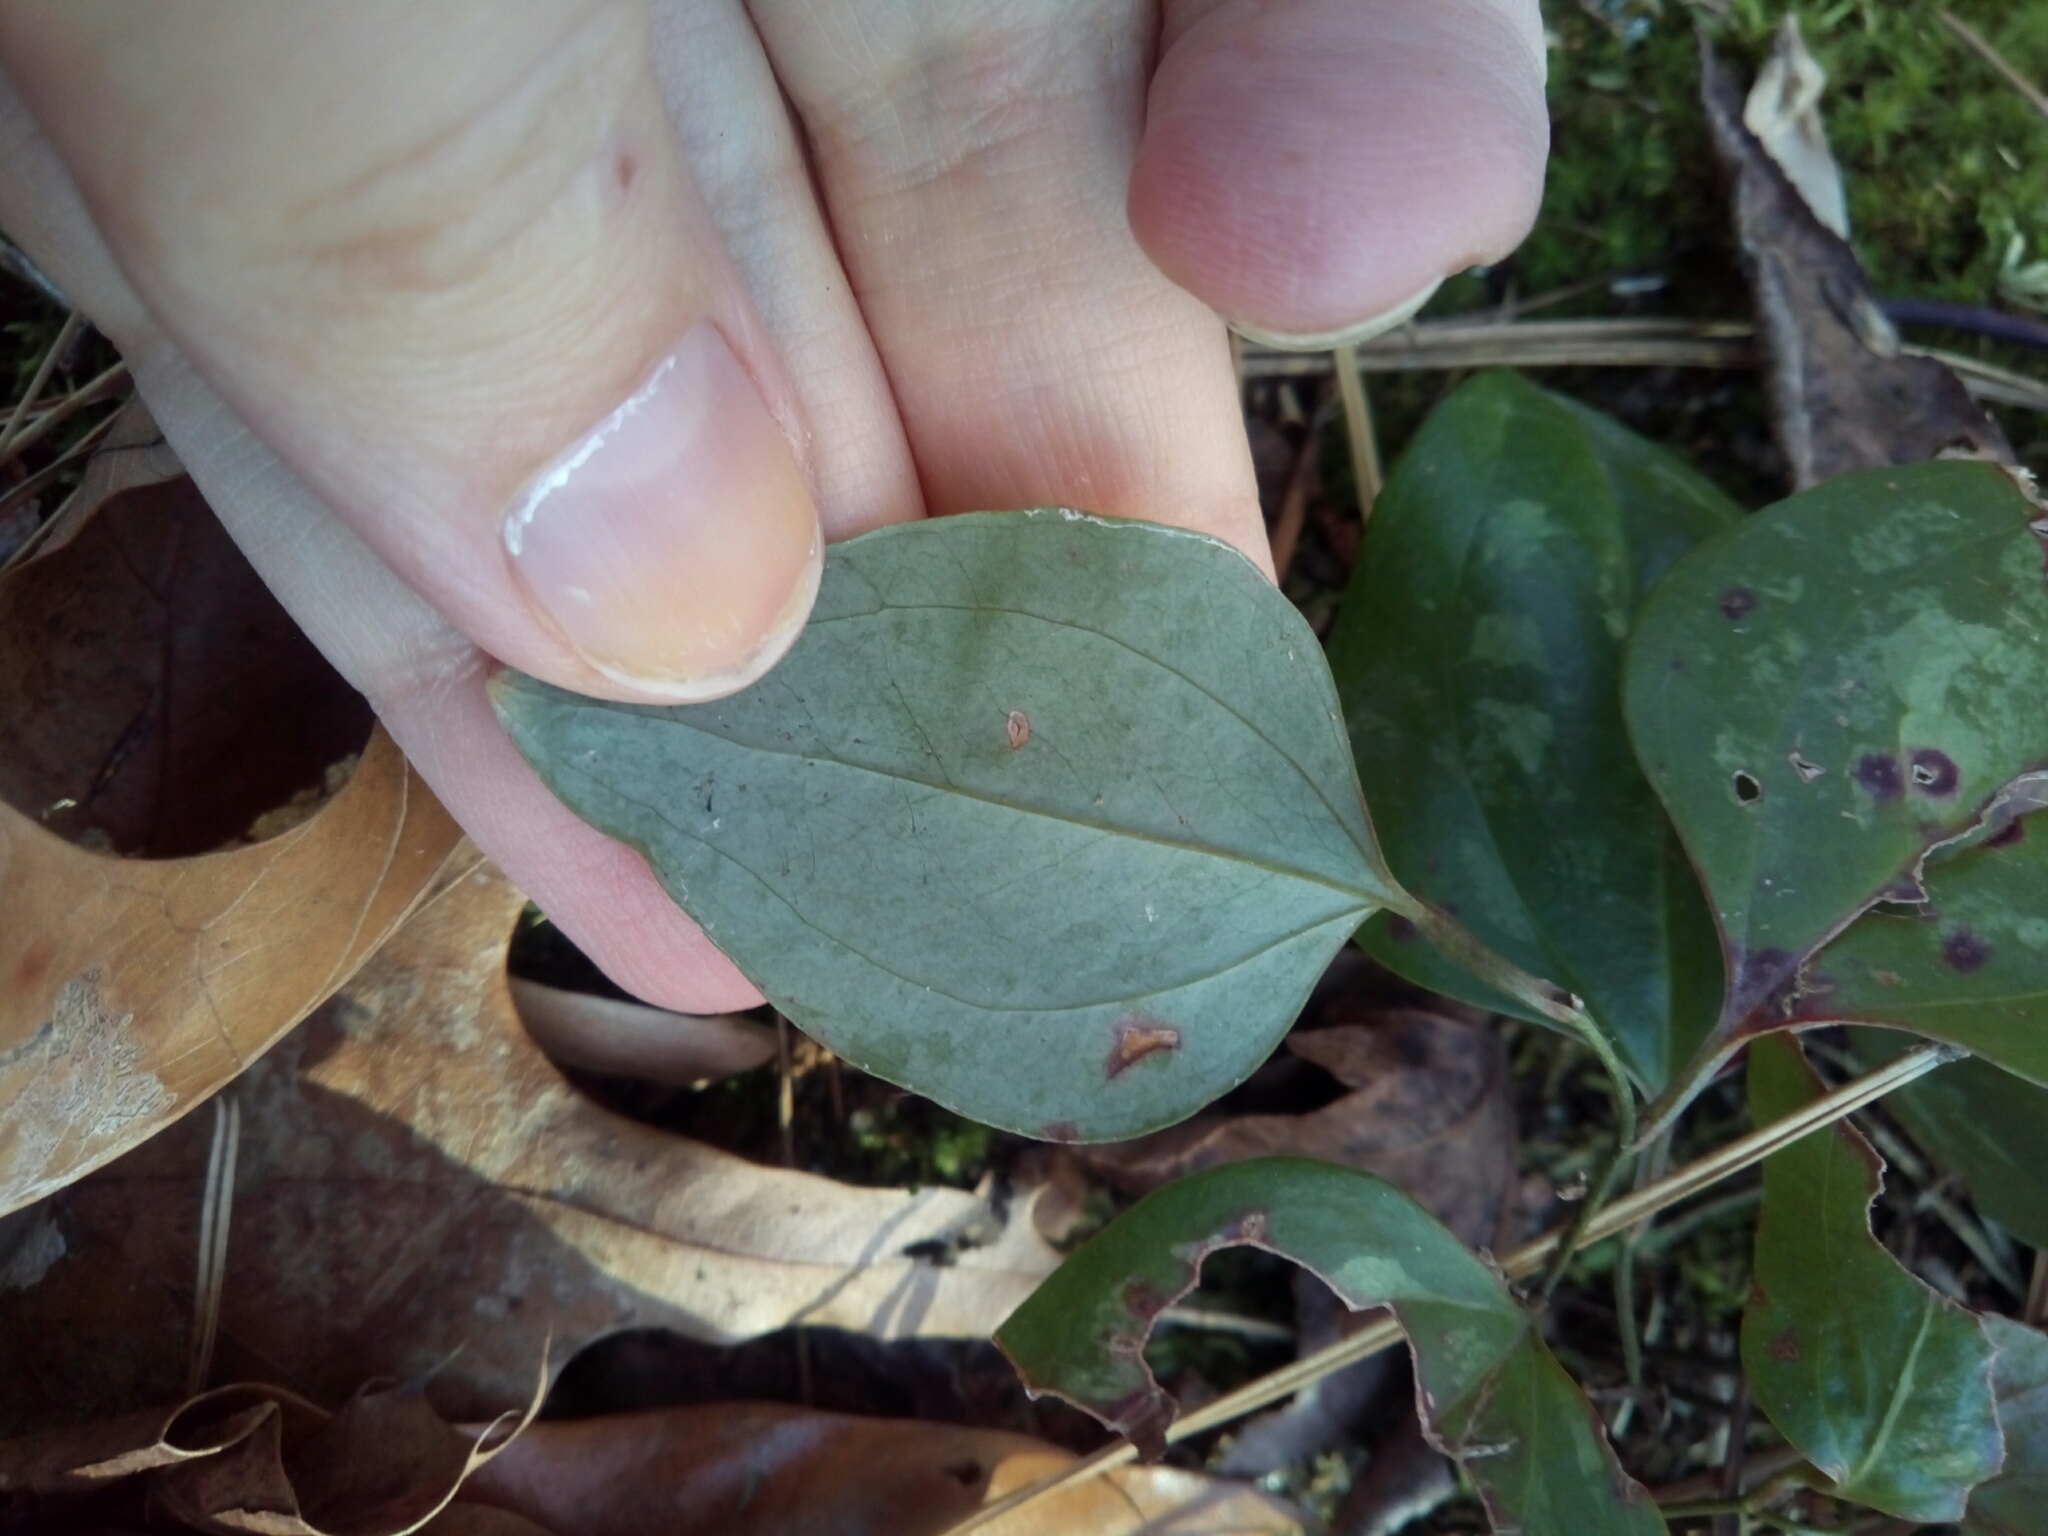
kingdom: Plantae
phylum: Tracheophyta
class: Liliopsida
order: Liliales
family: Smilacaceae
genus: Smilax
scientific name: Smilax glauca
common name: Cat greenbrier
